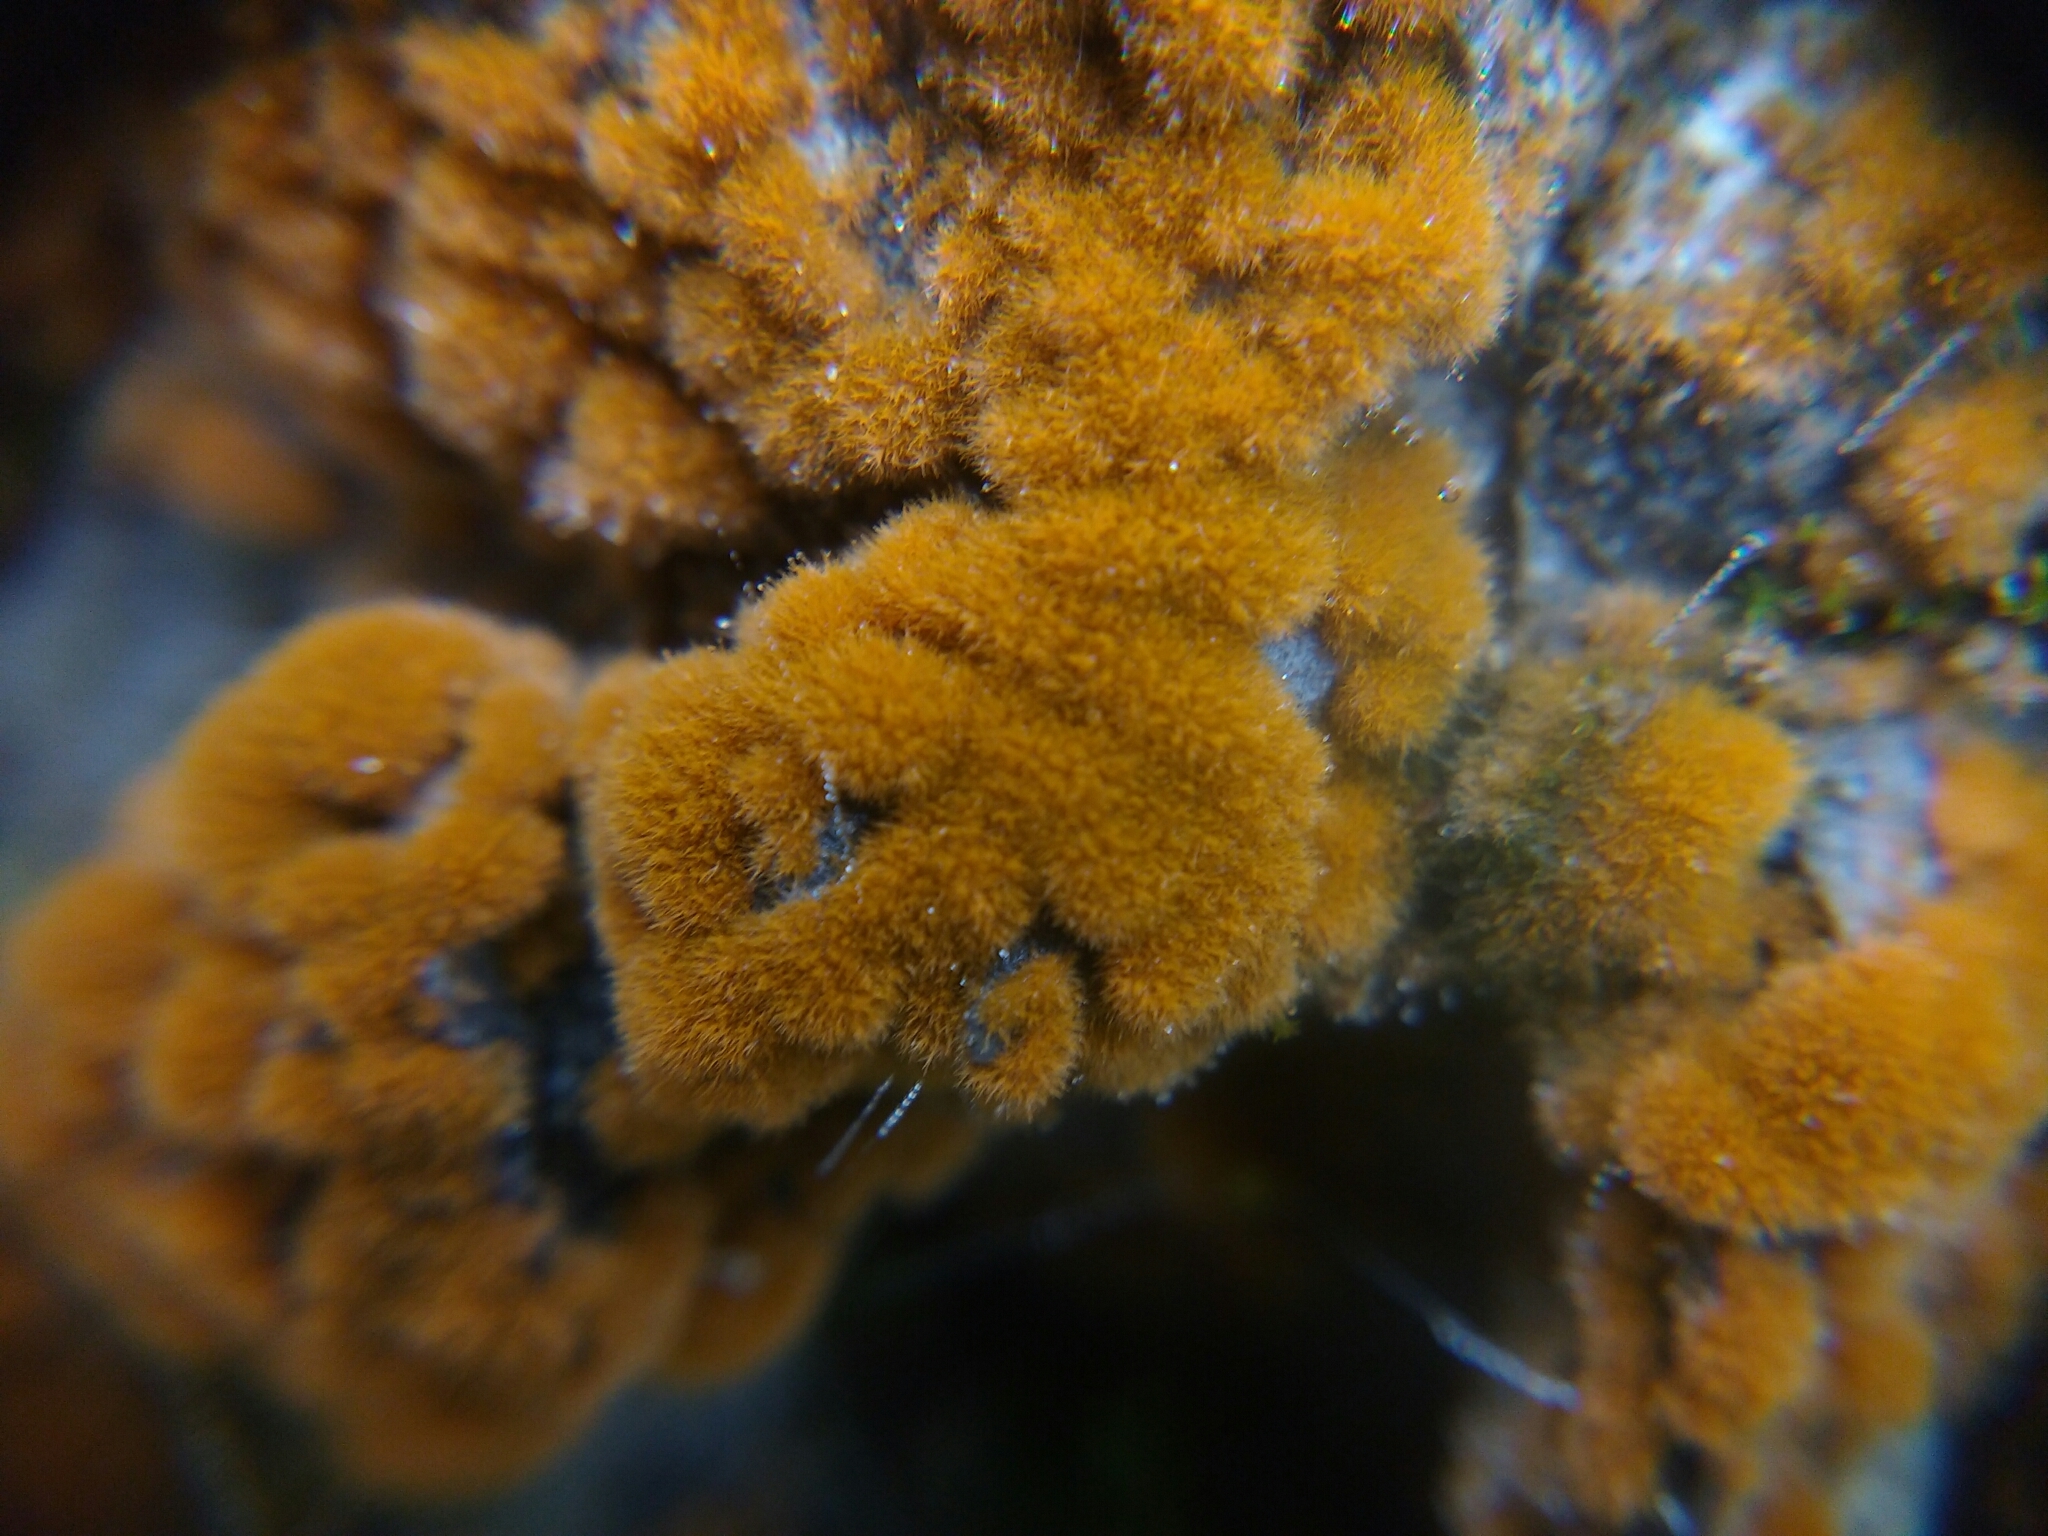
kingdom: Plantae
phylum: Chlorophyta
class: Ulvophyceae
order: Trentepohliales
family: Trentepohliaceae
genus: Trentepohlia
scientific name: Trentepohlia
